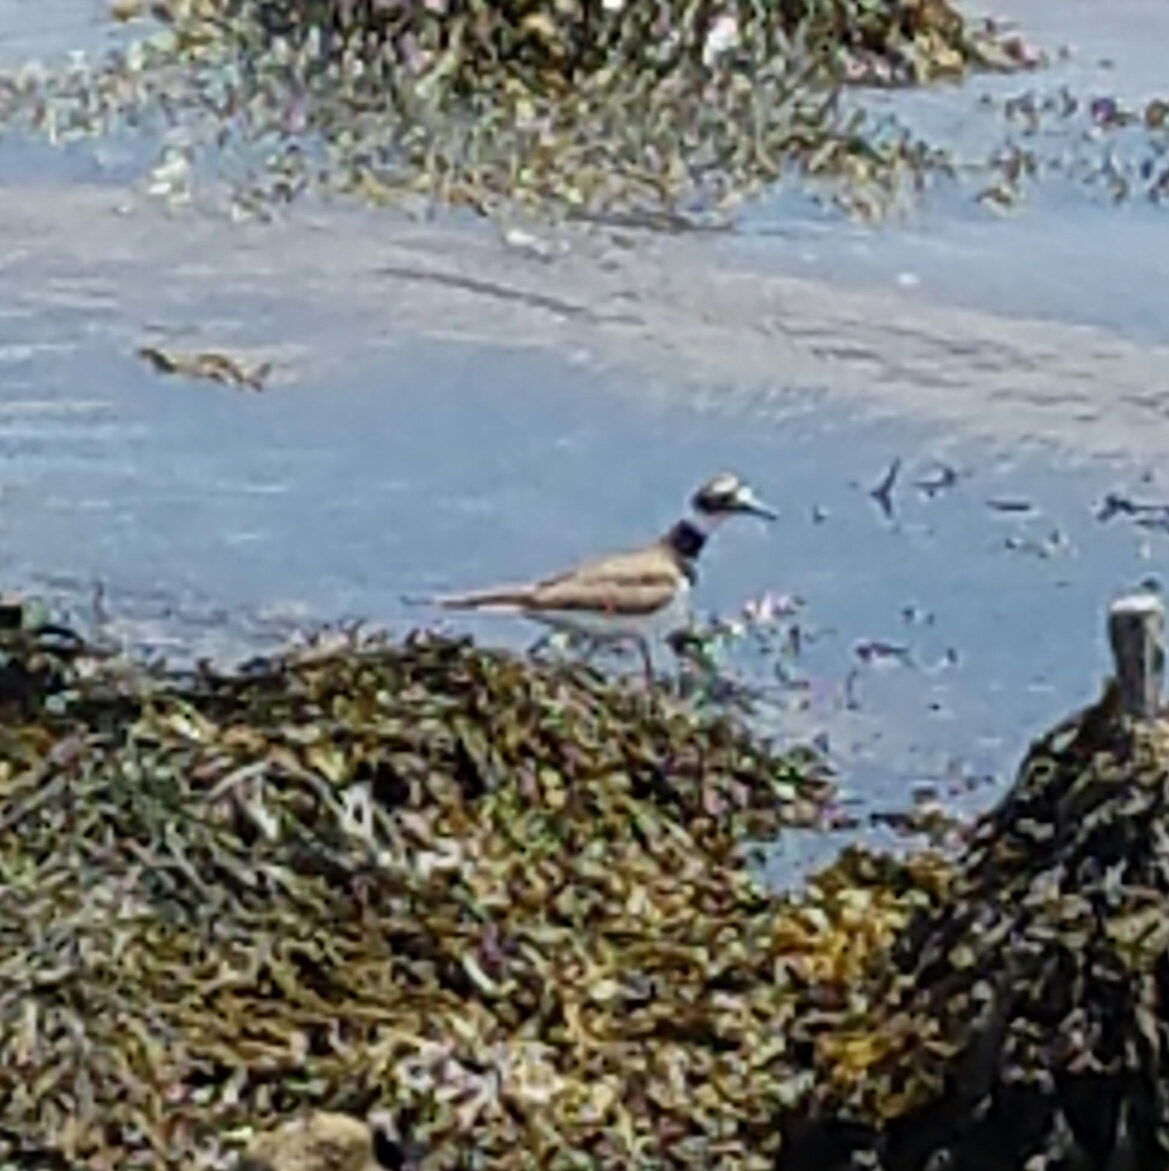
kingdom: Animalia
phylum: Chordata
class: Aves
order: Charadriiformes
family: Charadriidae
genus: Charadrius
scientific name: Charadrius vociferus
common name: Killdeer
